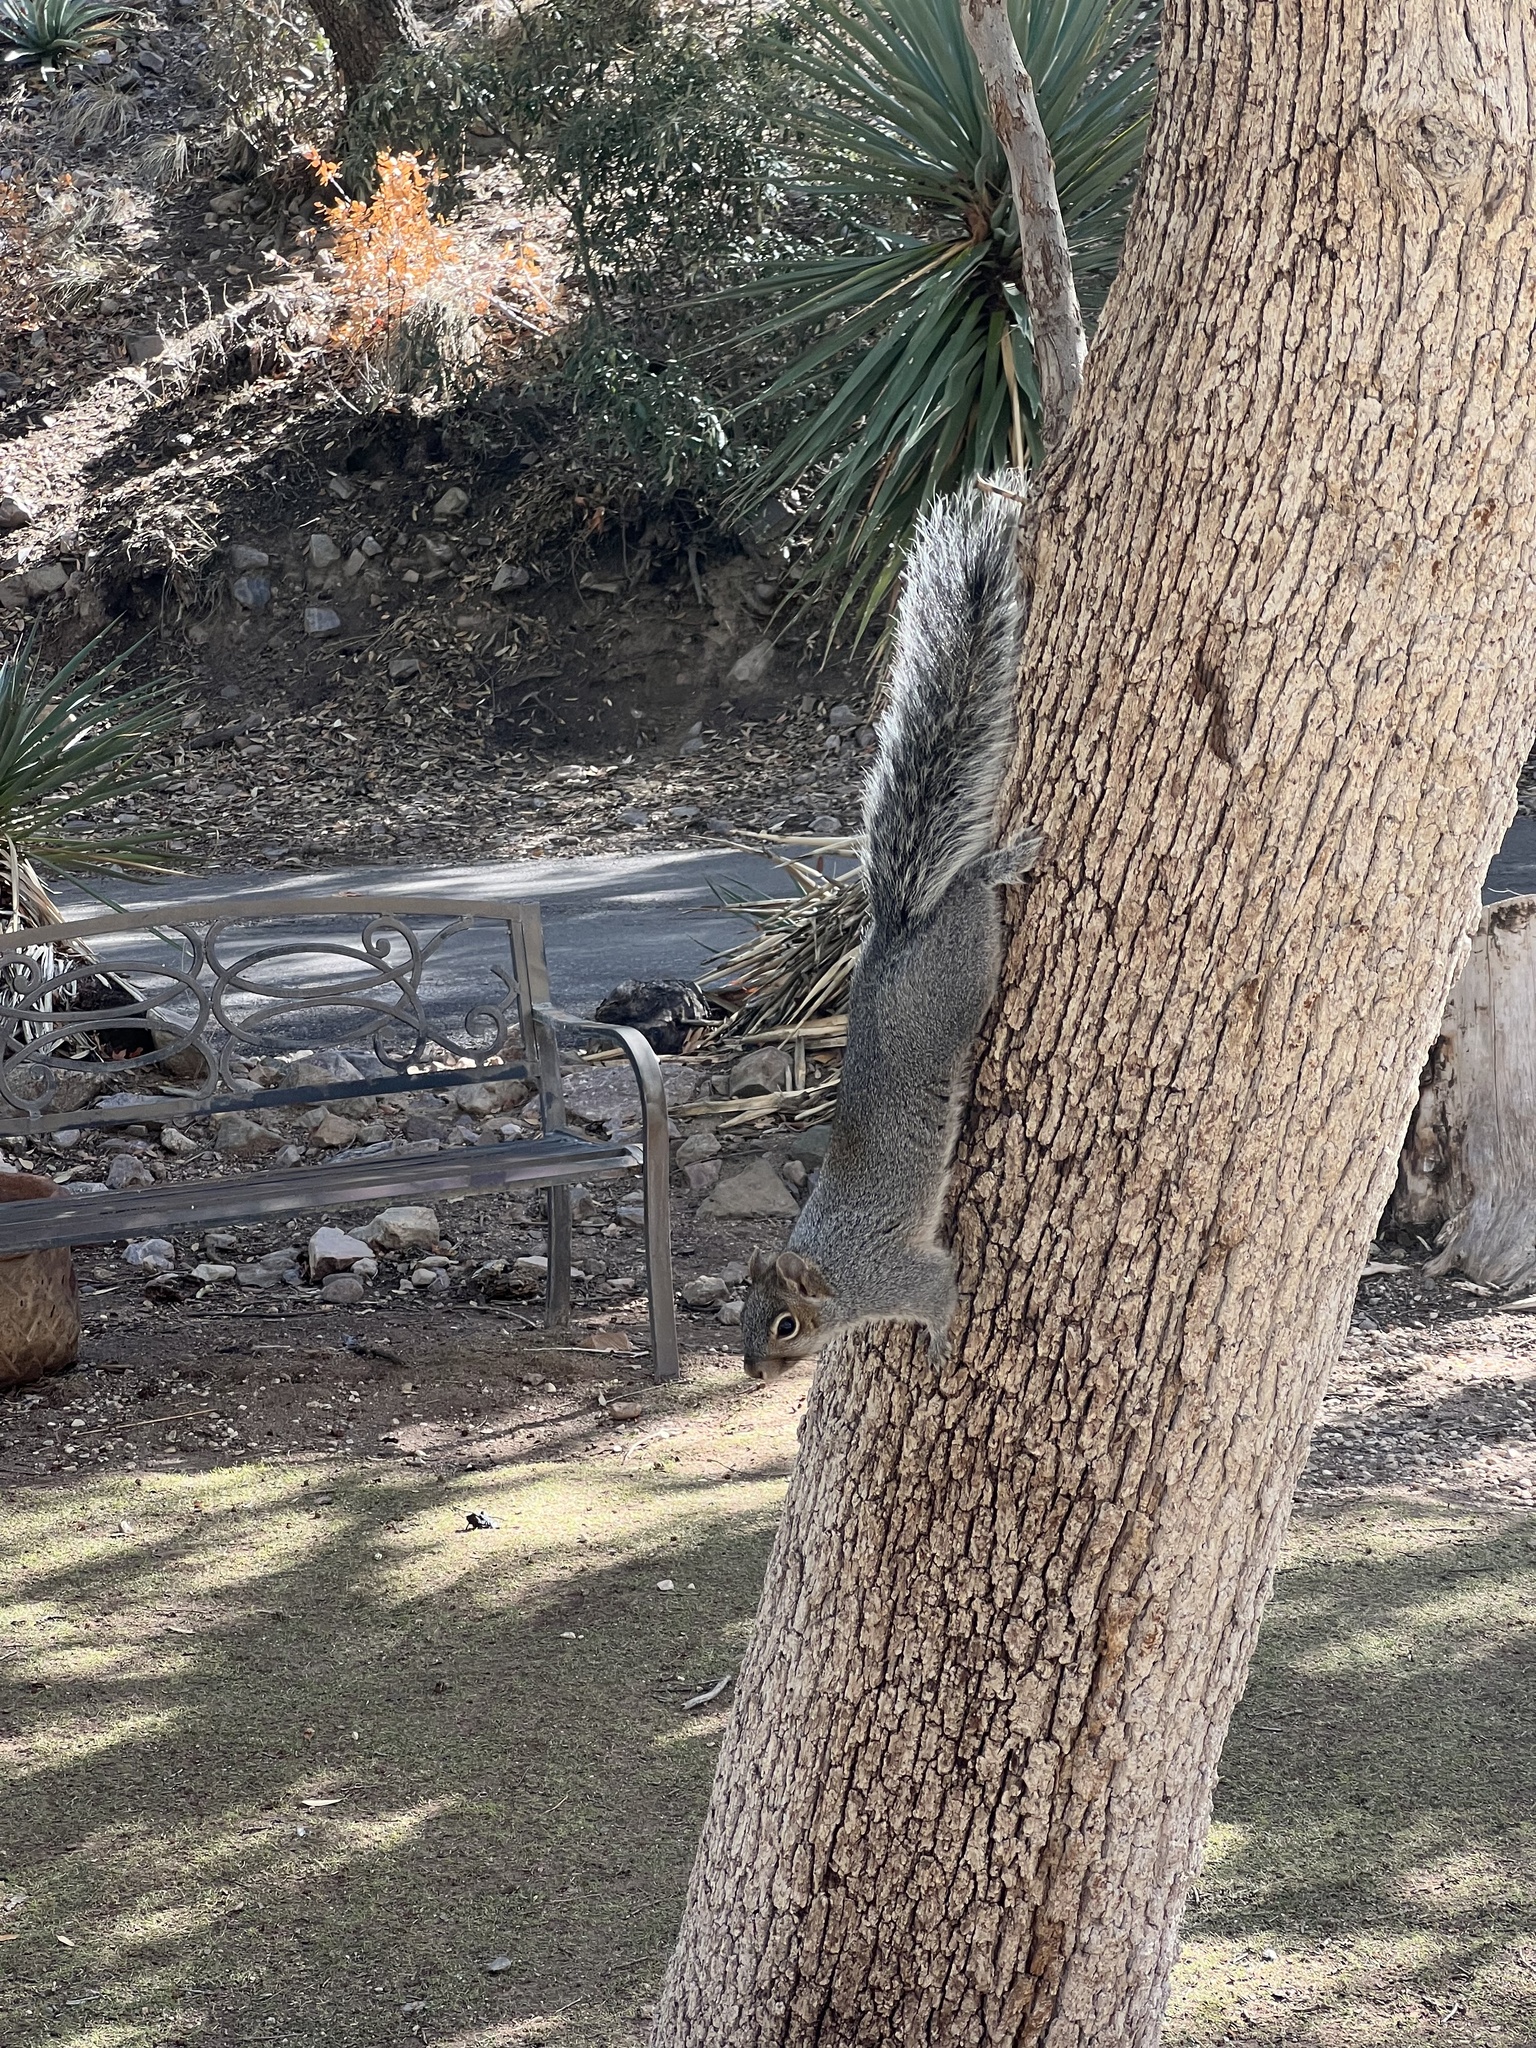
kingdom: Animalia
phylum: Chordata
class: Mammalia
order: Rodentia
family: Sciuridae
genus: Sciurus
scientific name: Sciurus arizonensis
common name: Arizona gray squirrel
